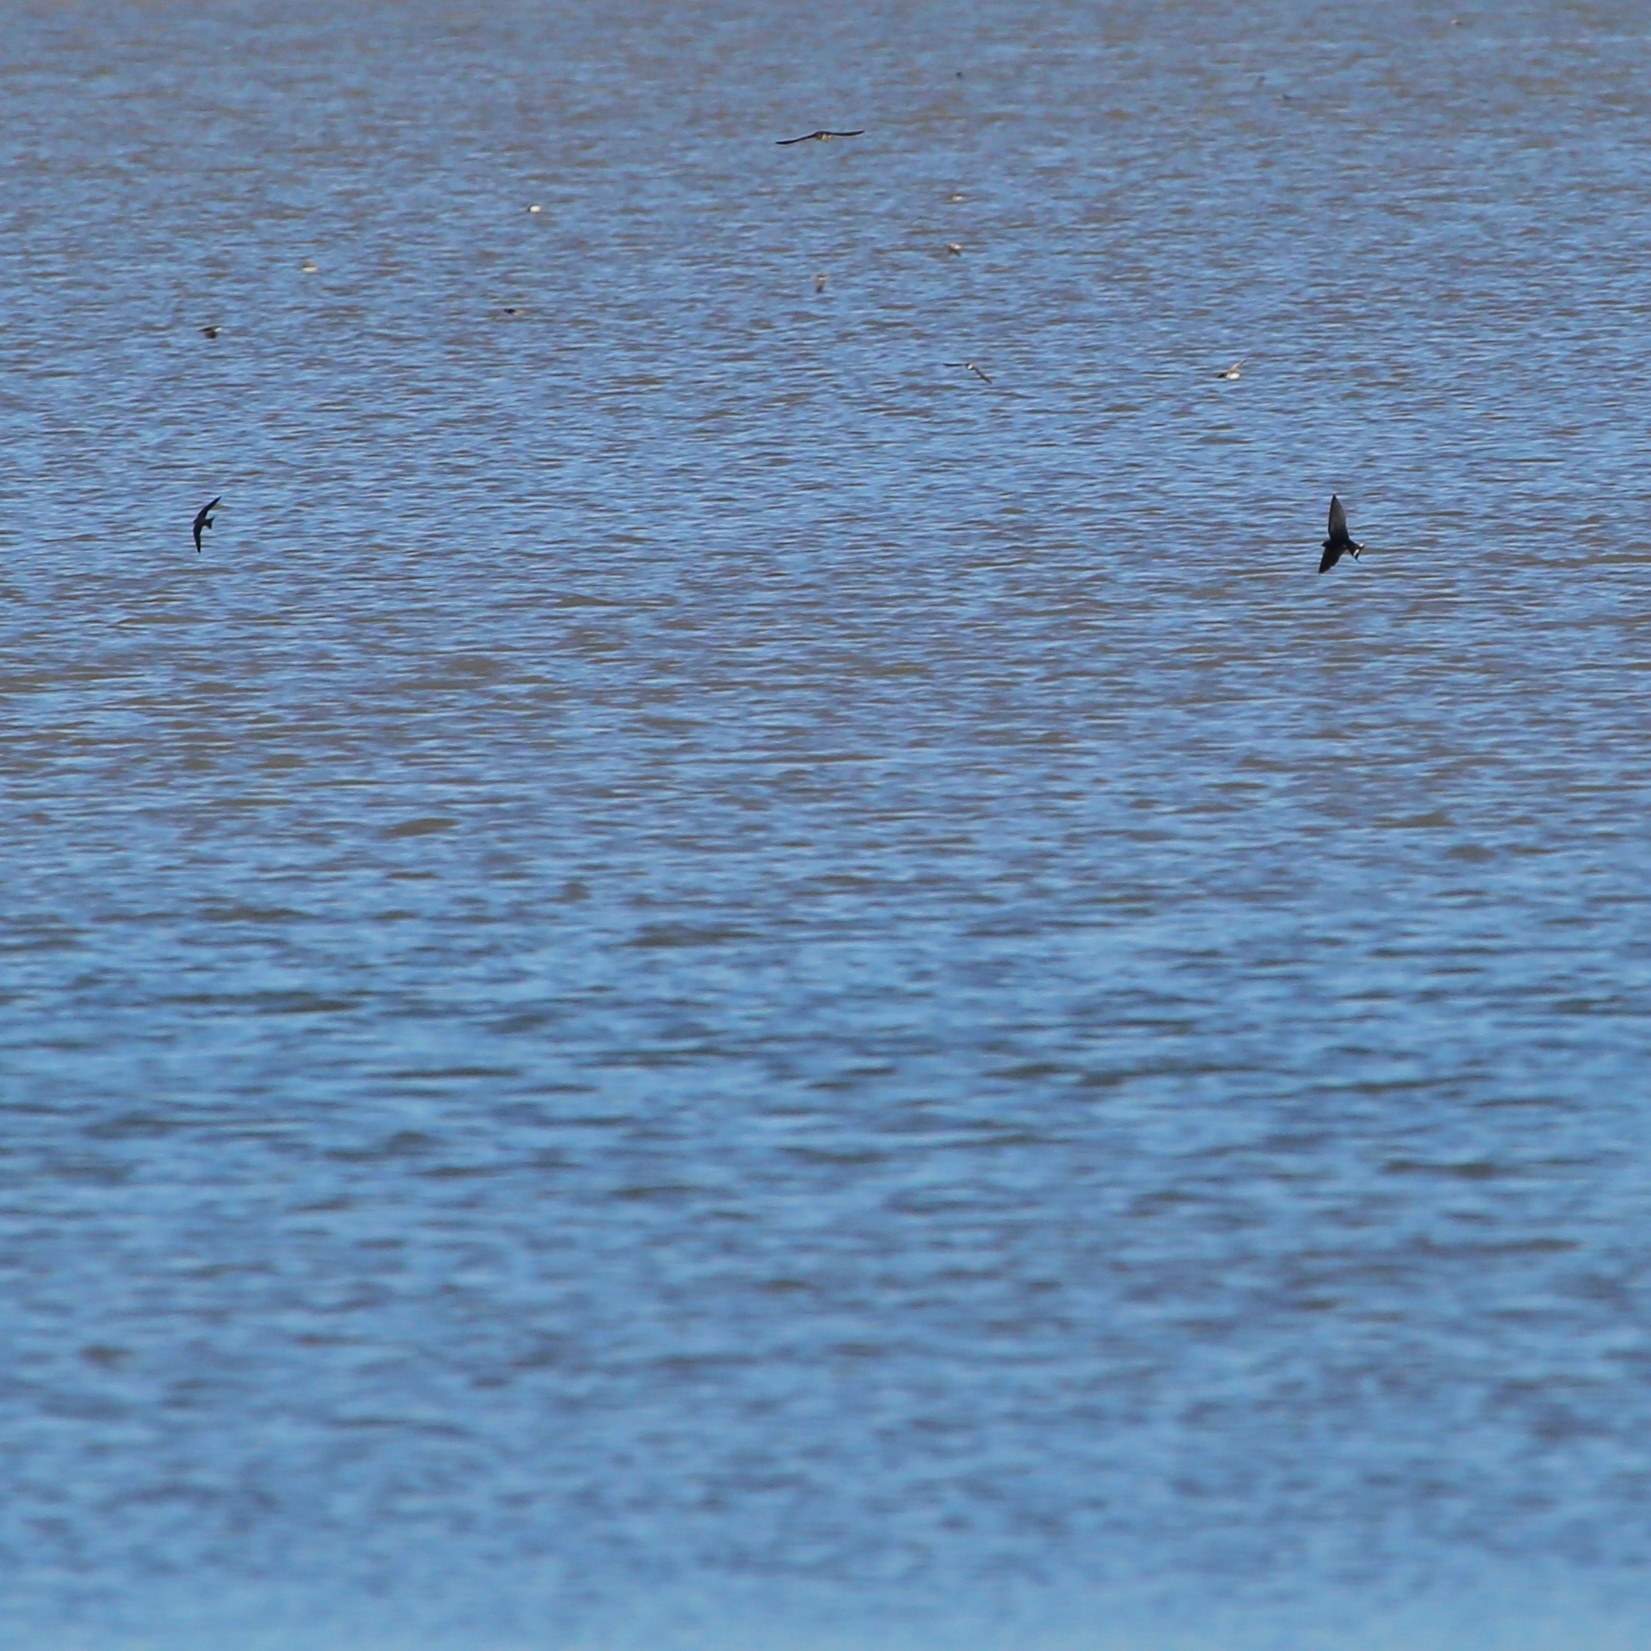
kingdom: Animalia
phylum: Chordata
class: Aves
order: Passeriformes
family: Hirundinidae
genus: Hirundo
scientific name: Hirundo rustica
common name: Barn swallow
